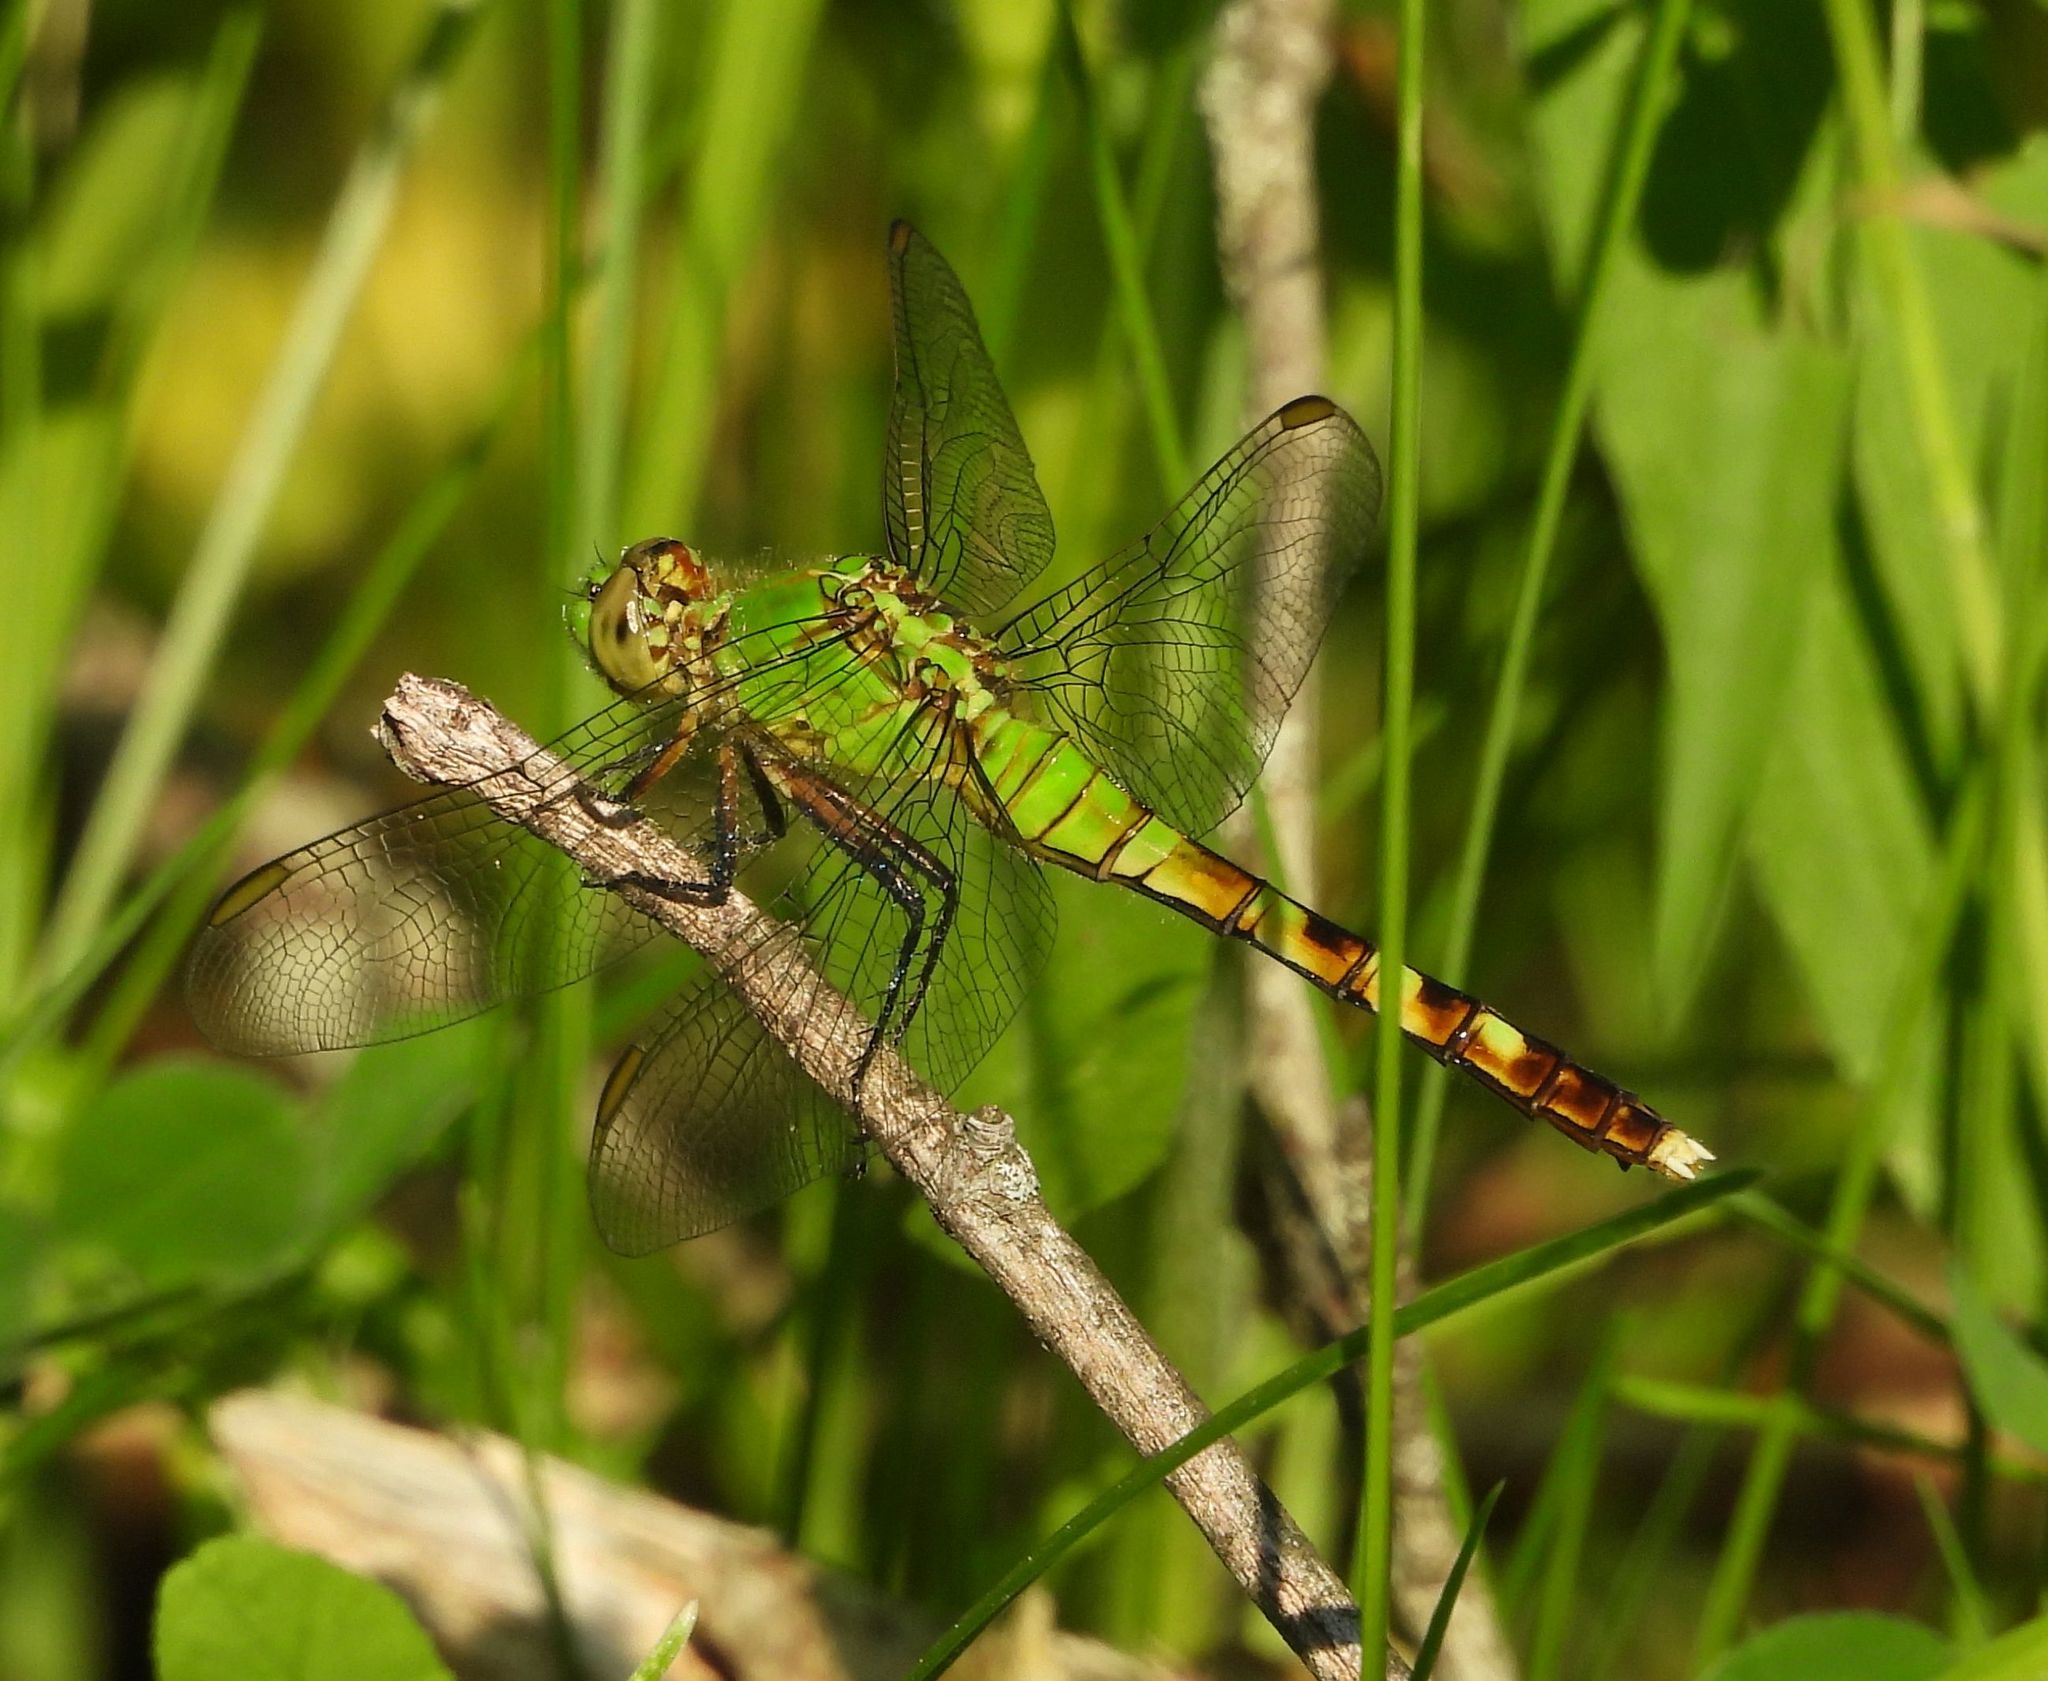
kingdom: Animalia
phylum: Arthropoda
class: Insecta
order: Odonata
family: Libellulidae
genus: Erythemis
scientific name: Erythemis simplicicollis
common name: Eastern pondhawk
